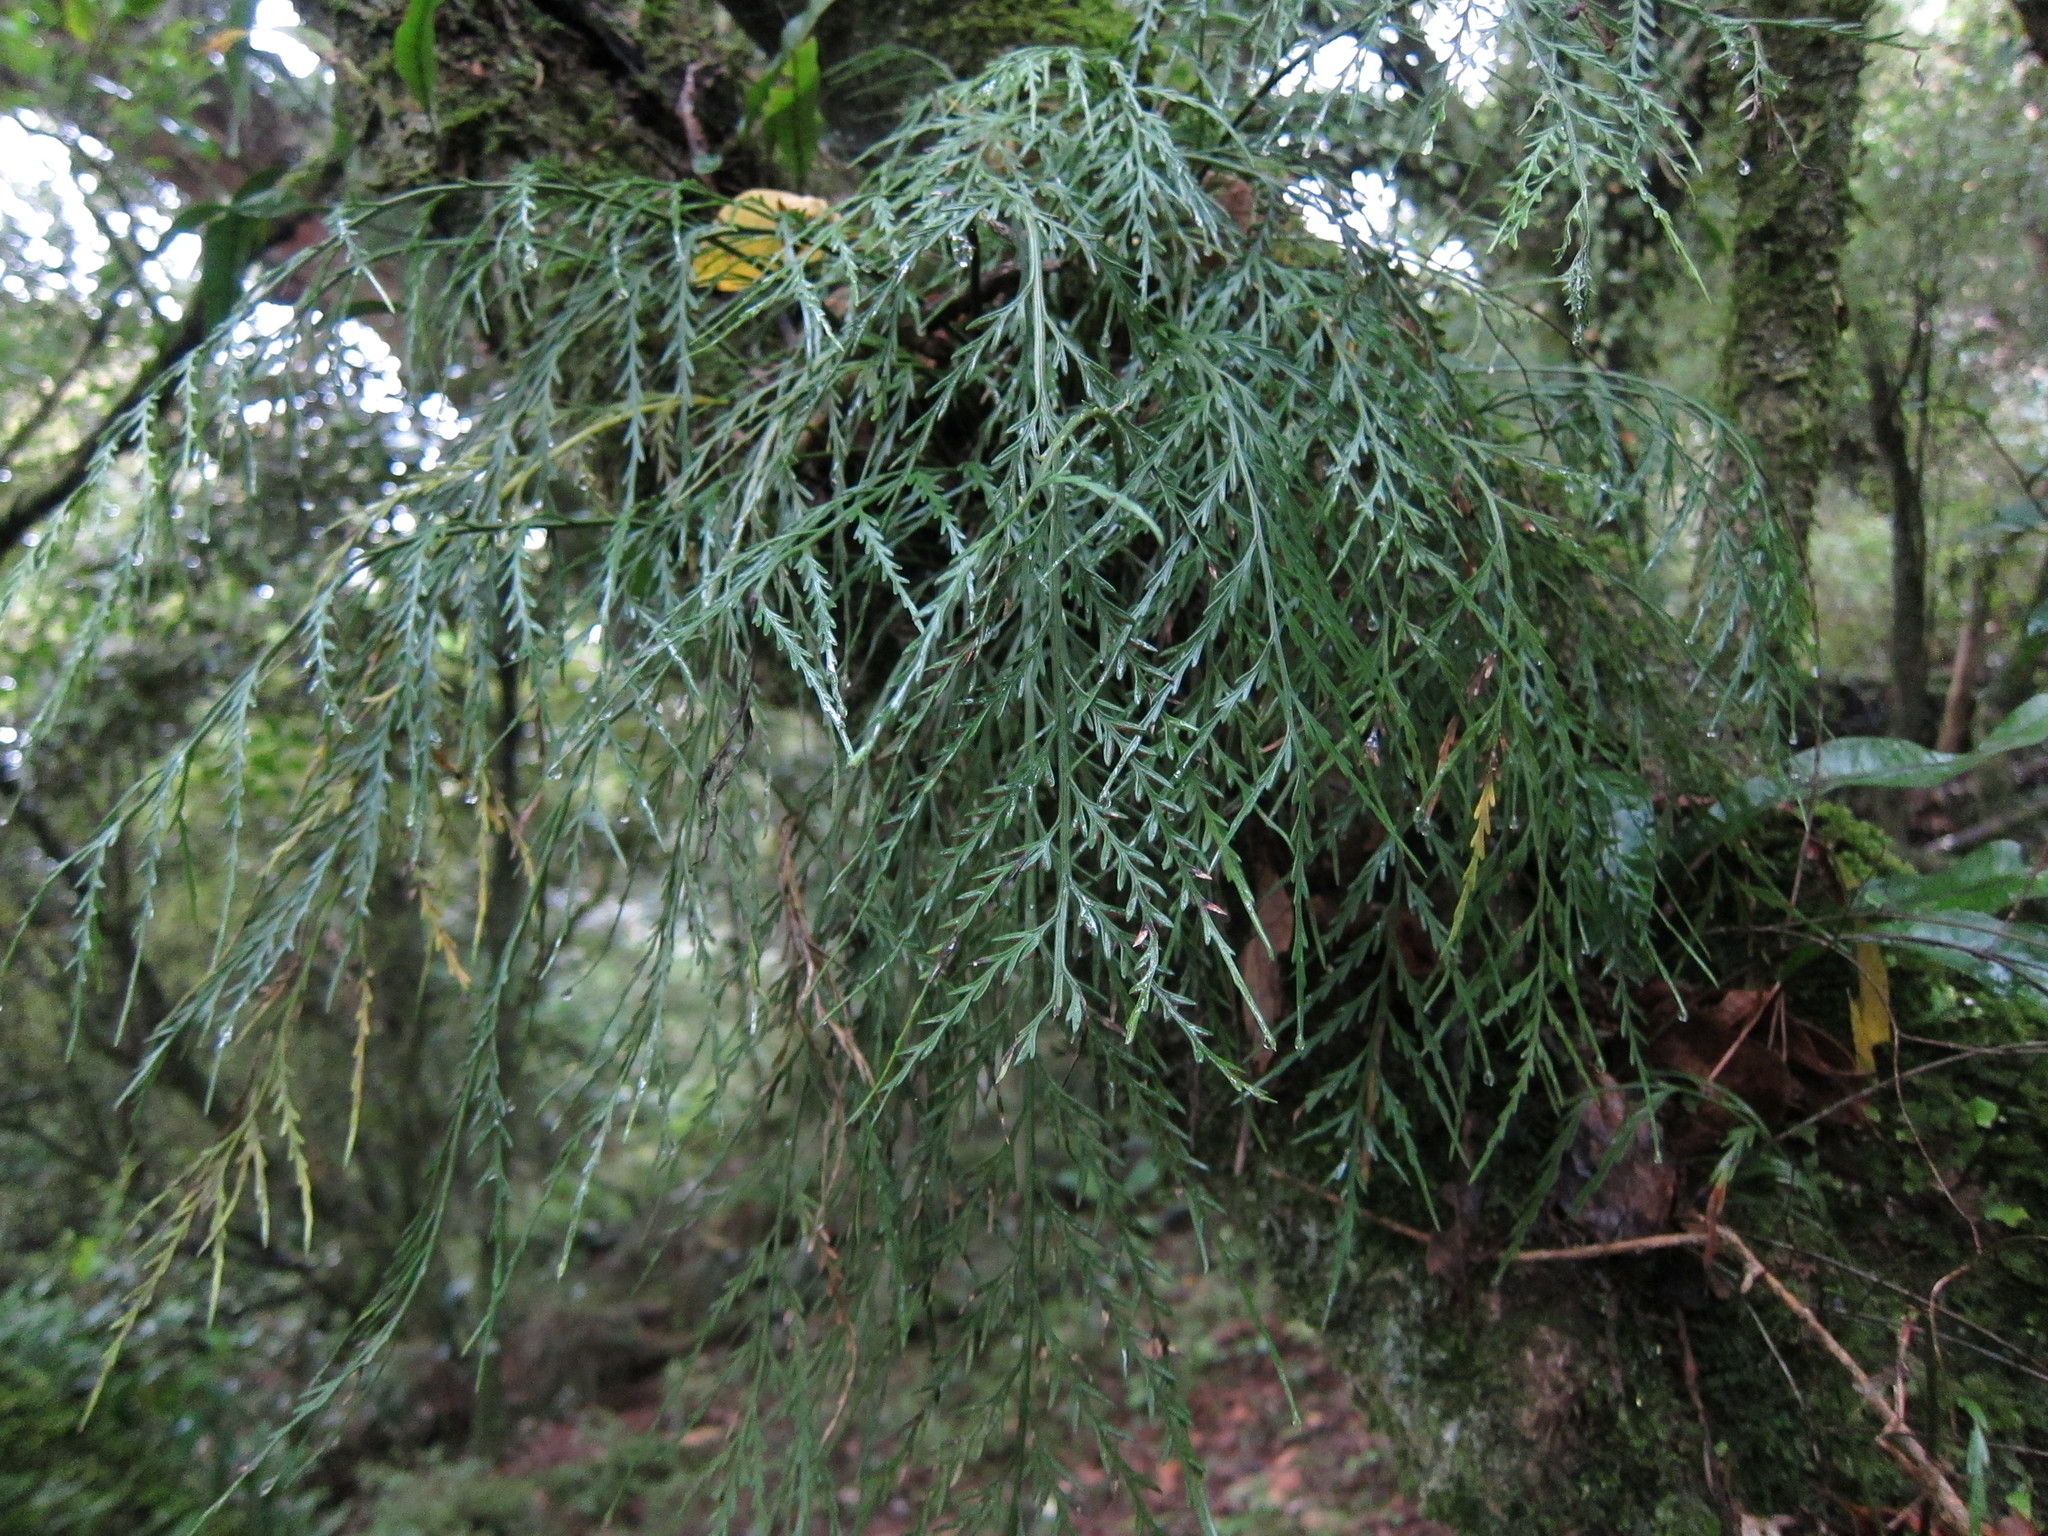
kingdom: Plantae
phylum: Tracheophyta
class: Polypodiopsida
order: Polypodiales
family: Aspleniaceae
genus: Asplenium
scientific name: Asplenium flaccidum
